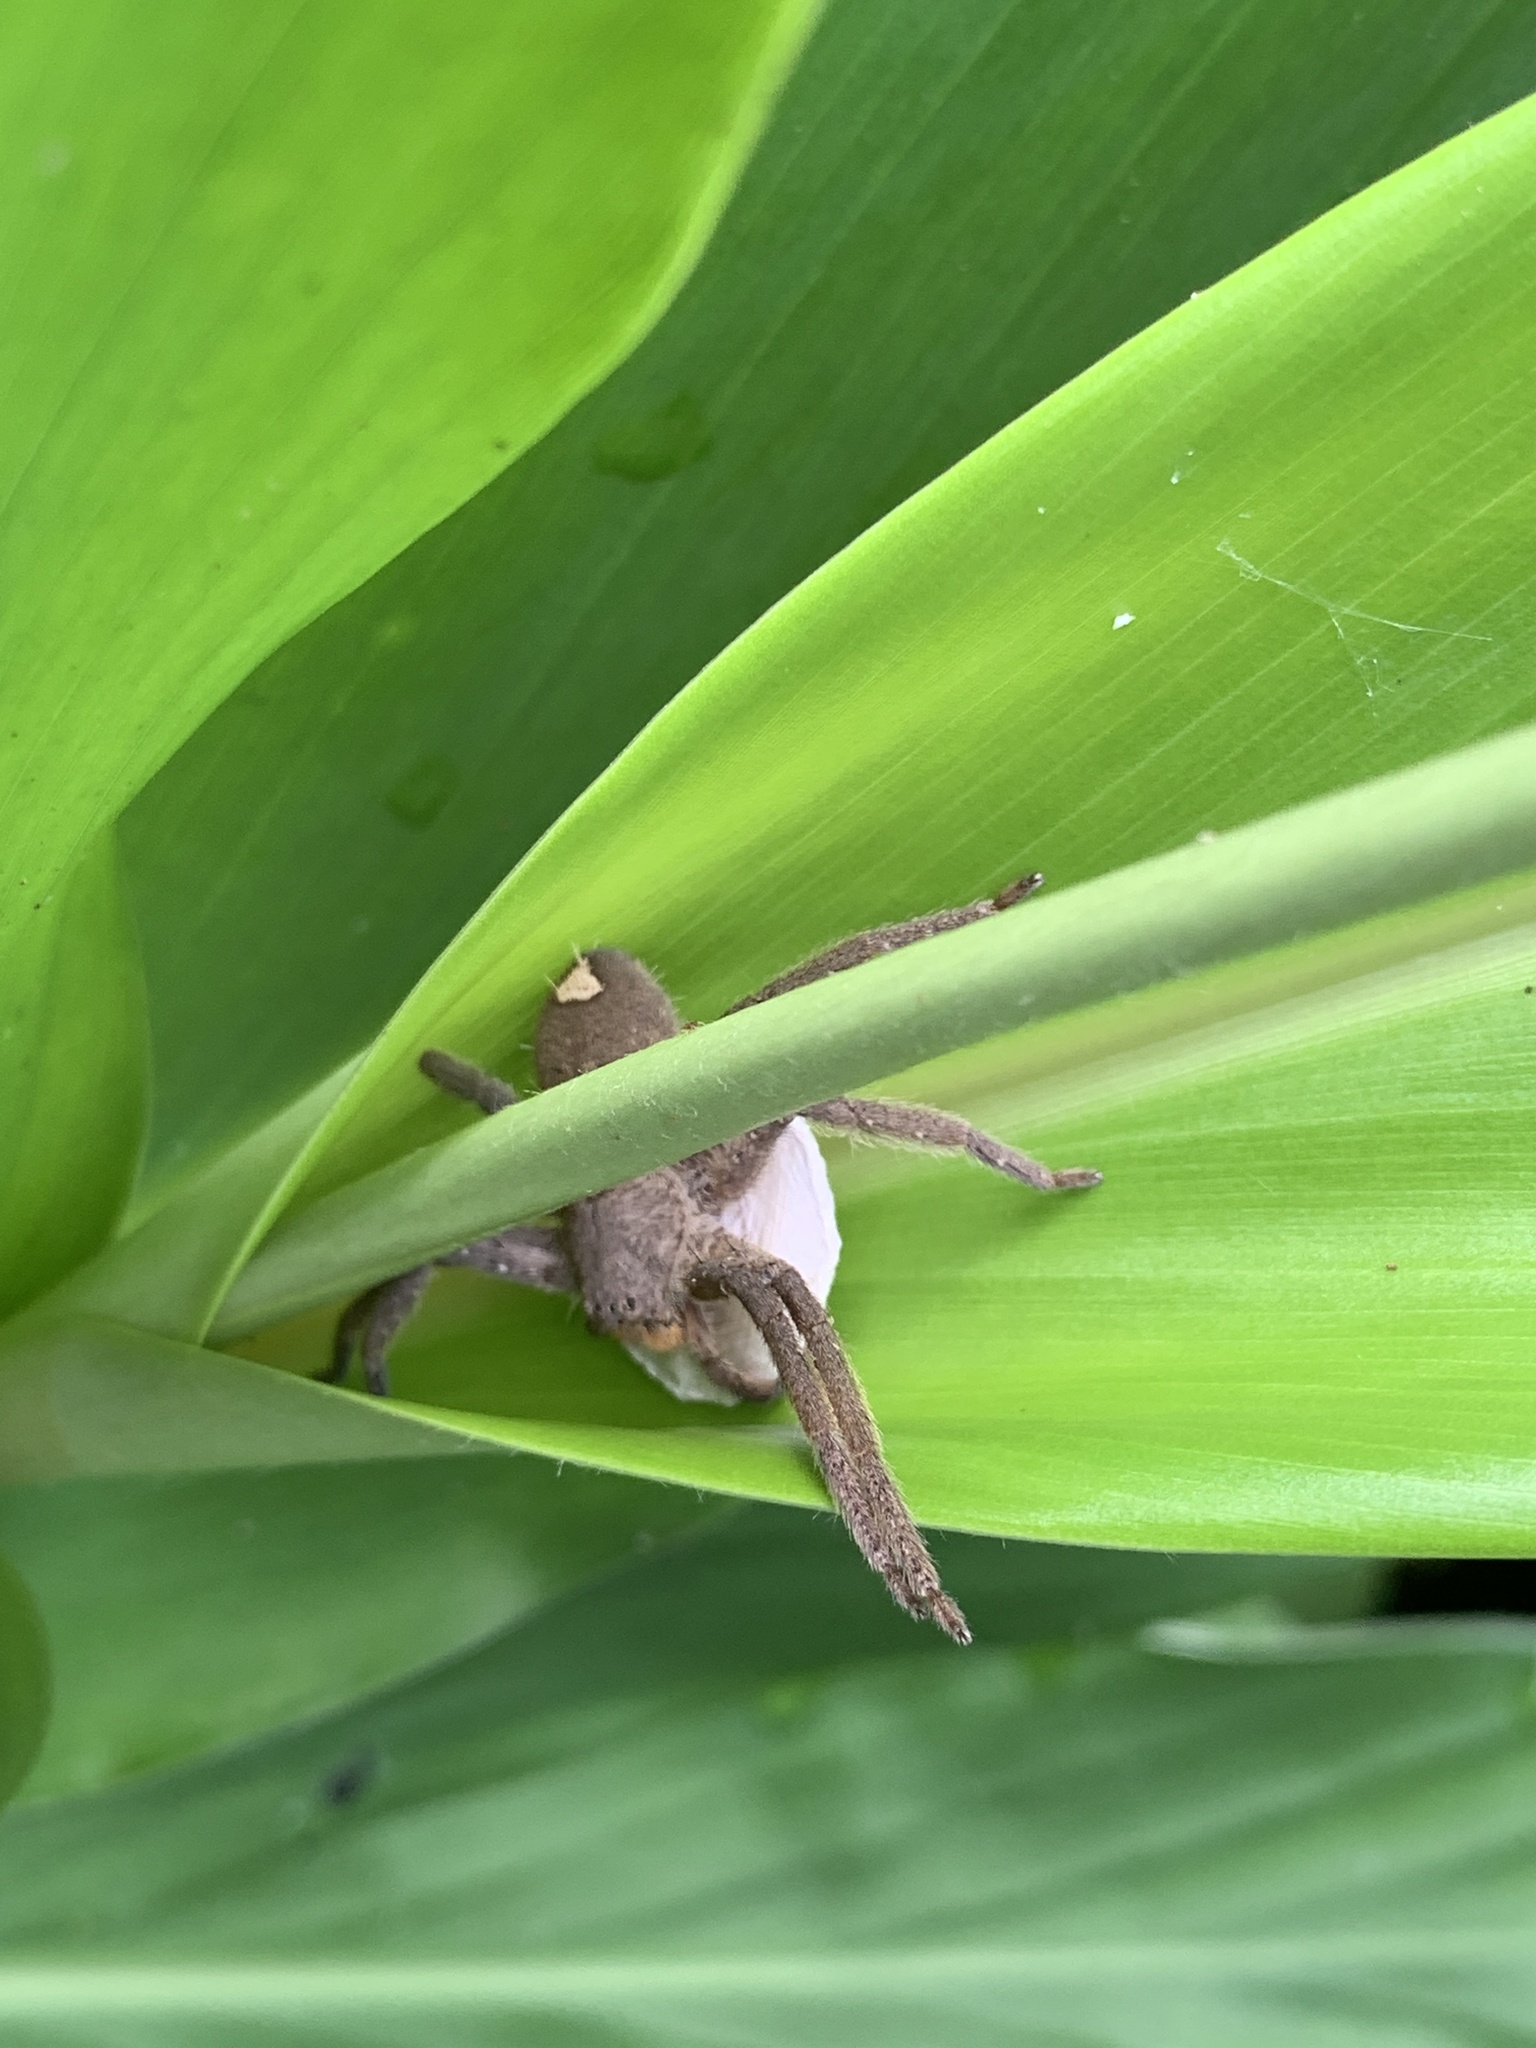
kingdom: Animalia
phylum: Arthropoda
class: Arachnida
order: Araneae
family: Sparassidae
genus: Heteropoda
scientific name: Heteropoda pingtungensis
